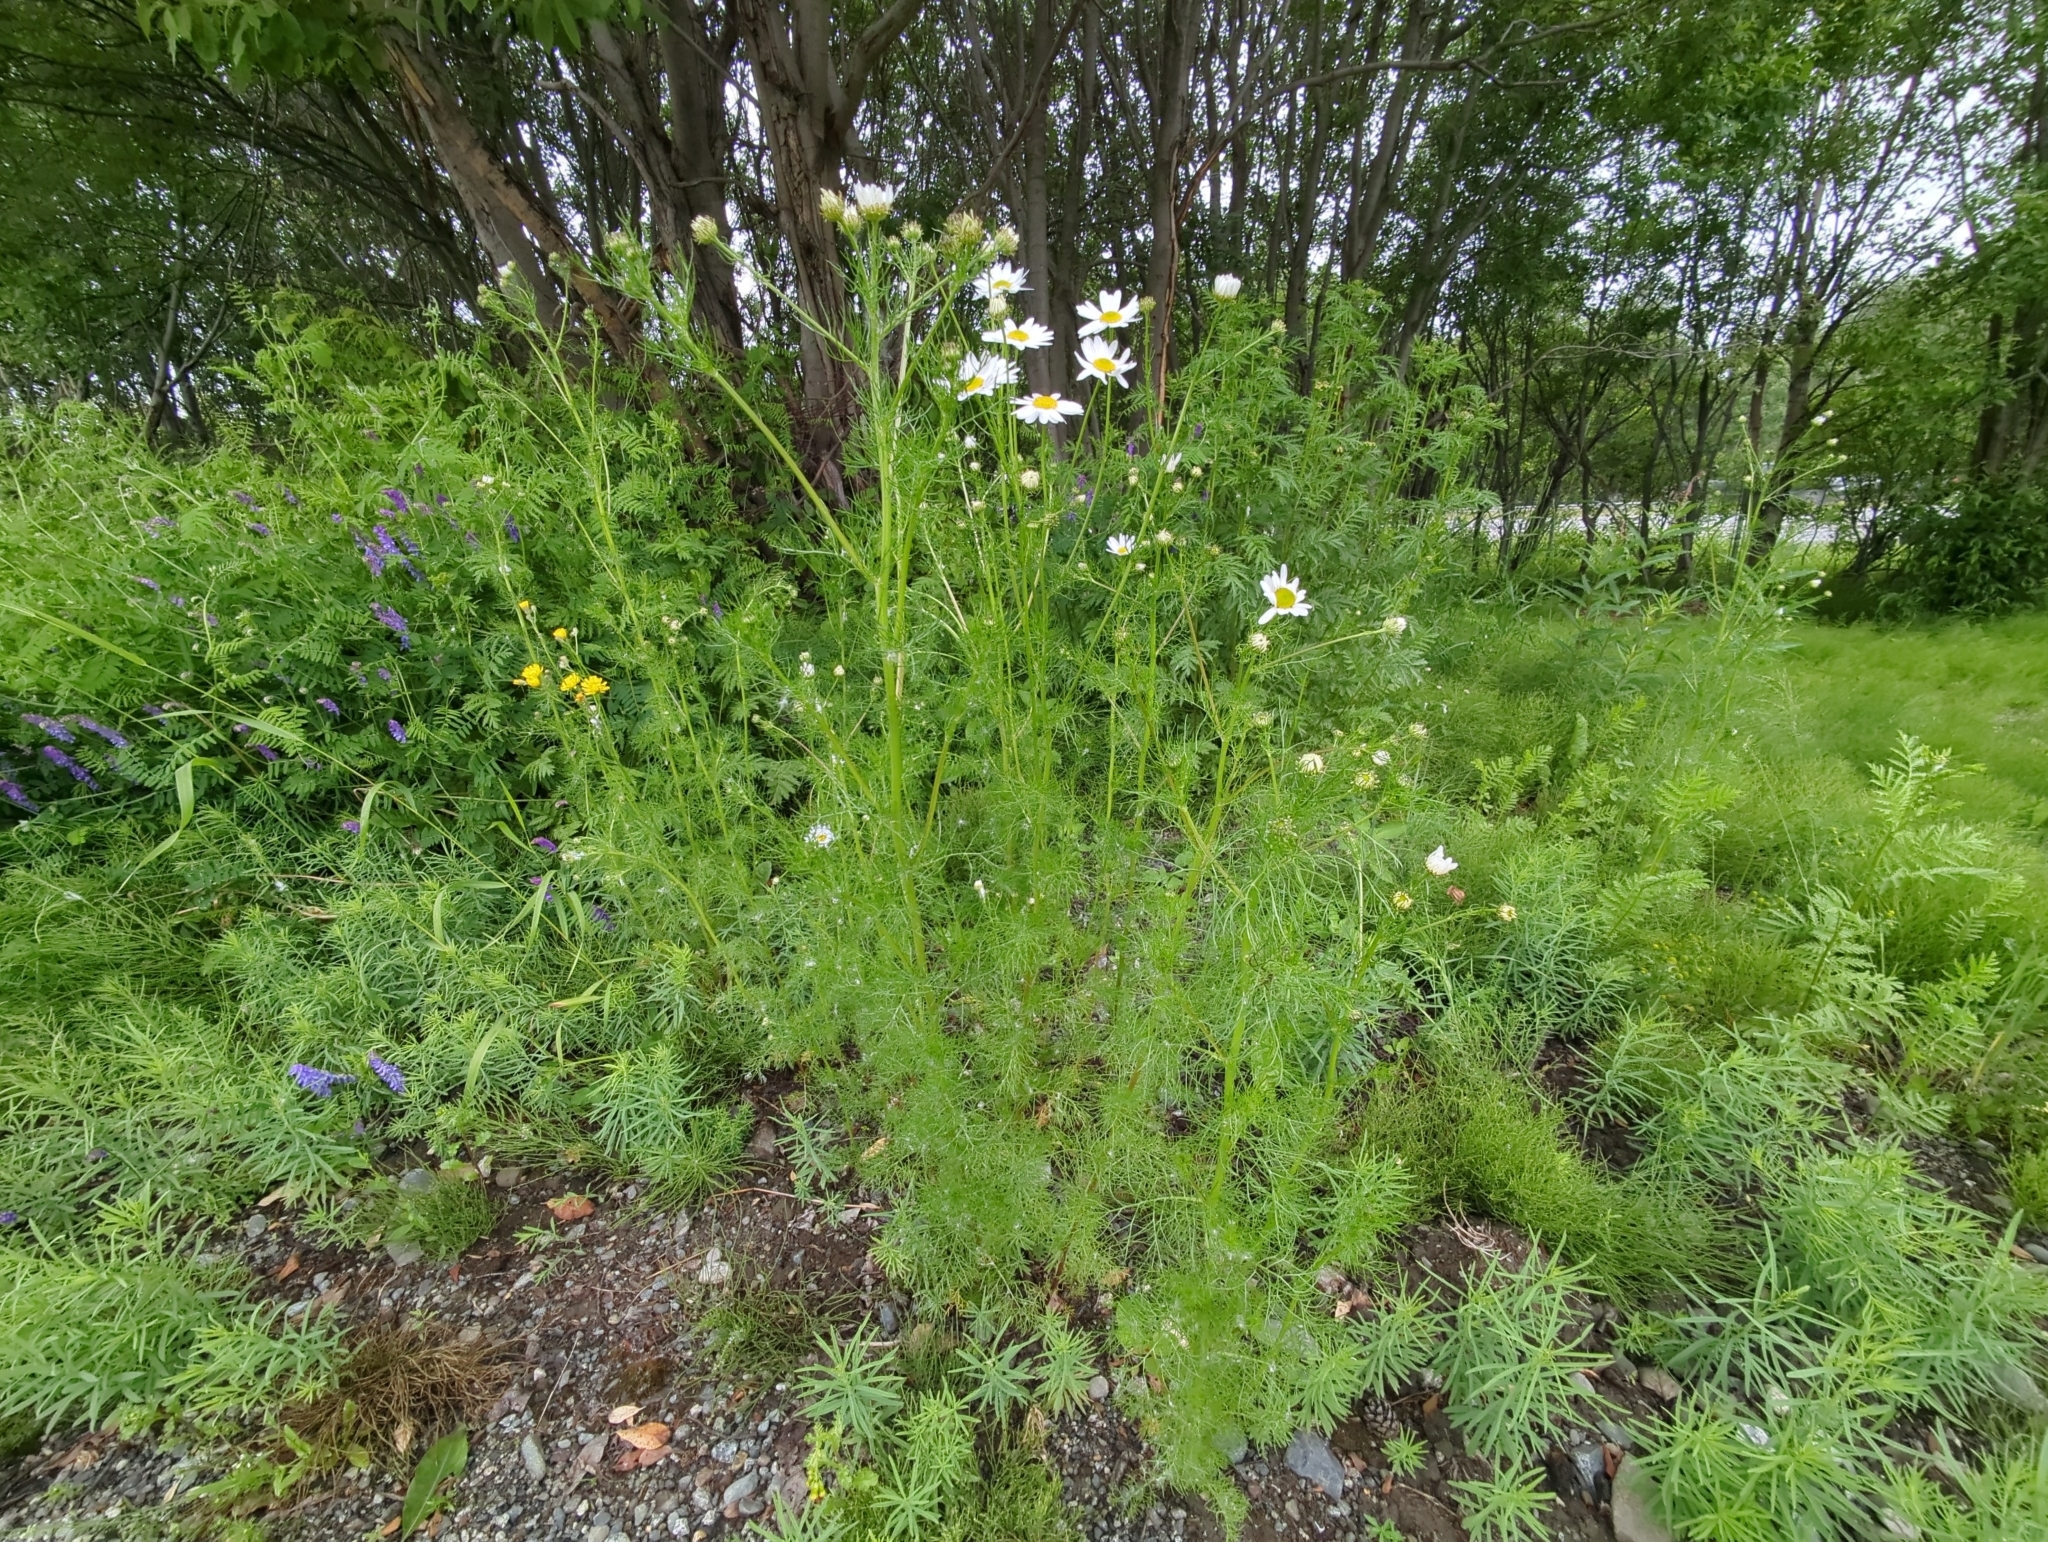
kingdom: Plantae
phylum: Tracheophyta
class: Magnoliopsida
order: Asterales
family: Asteraceae
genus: Tripleurospermum
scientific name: Tripleurospermum inodorum
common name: Scentless mayweed
